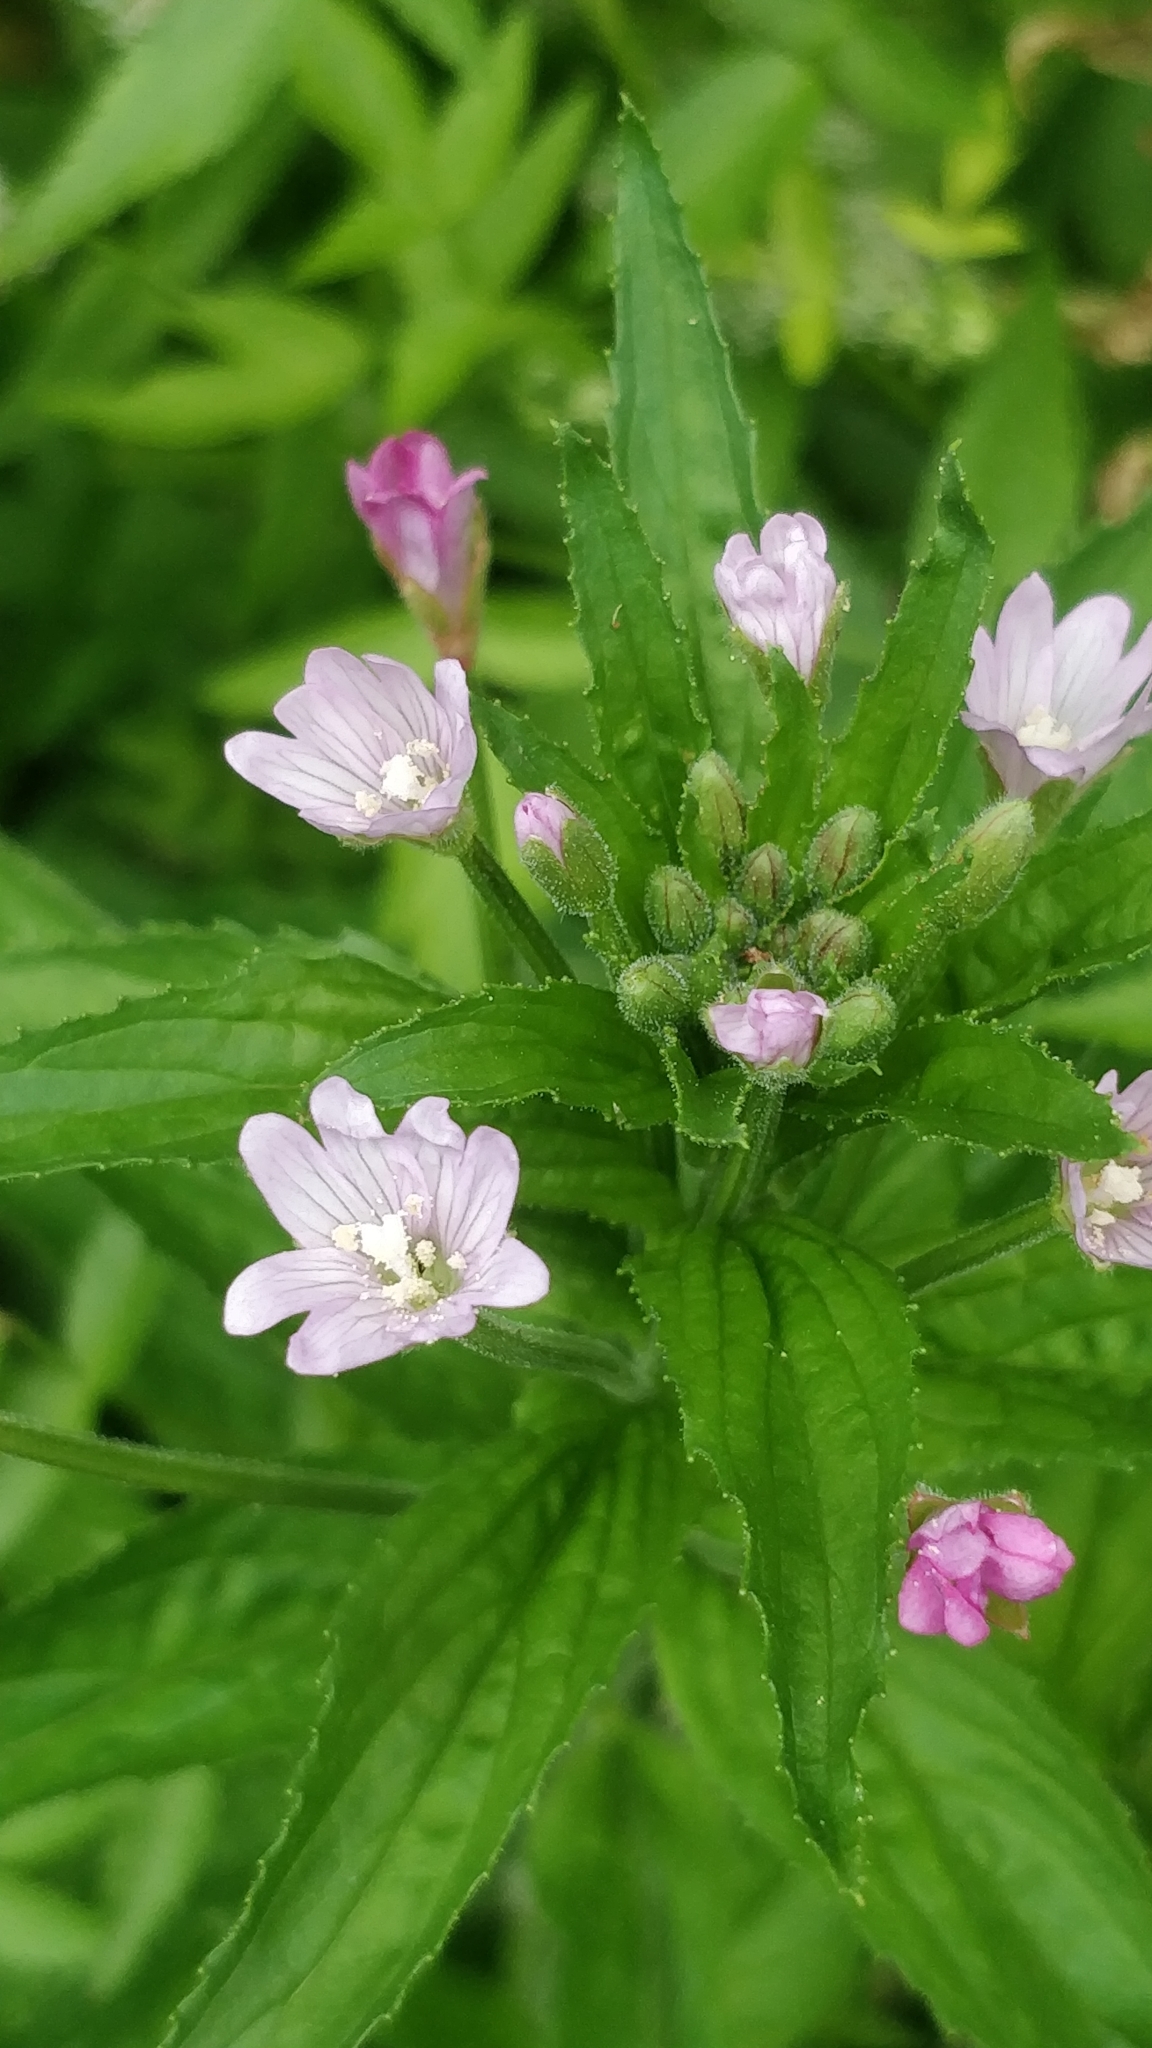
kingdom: Plantae
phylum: Tracheophyta
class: Magnoliopsida
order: Myrtales
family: Onagraceae
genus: Epilobium
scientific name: Epilobium parviflorum
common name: Hoary willowherb
